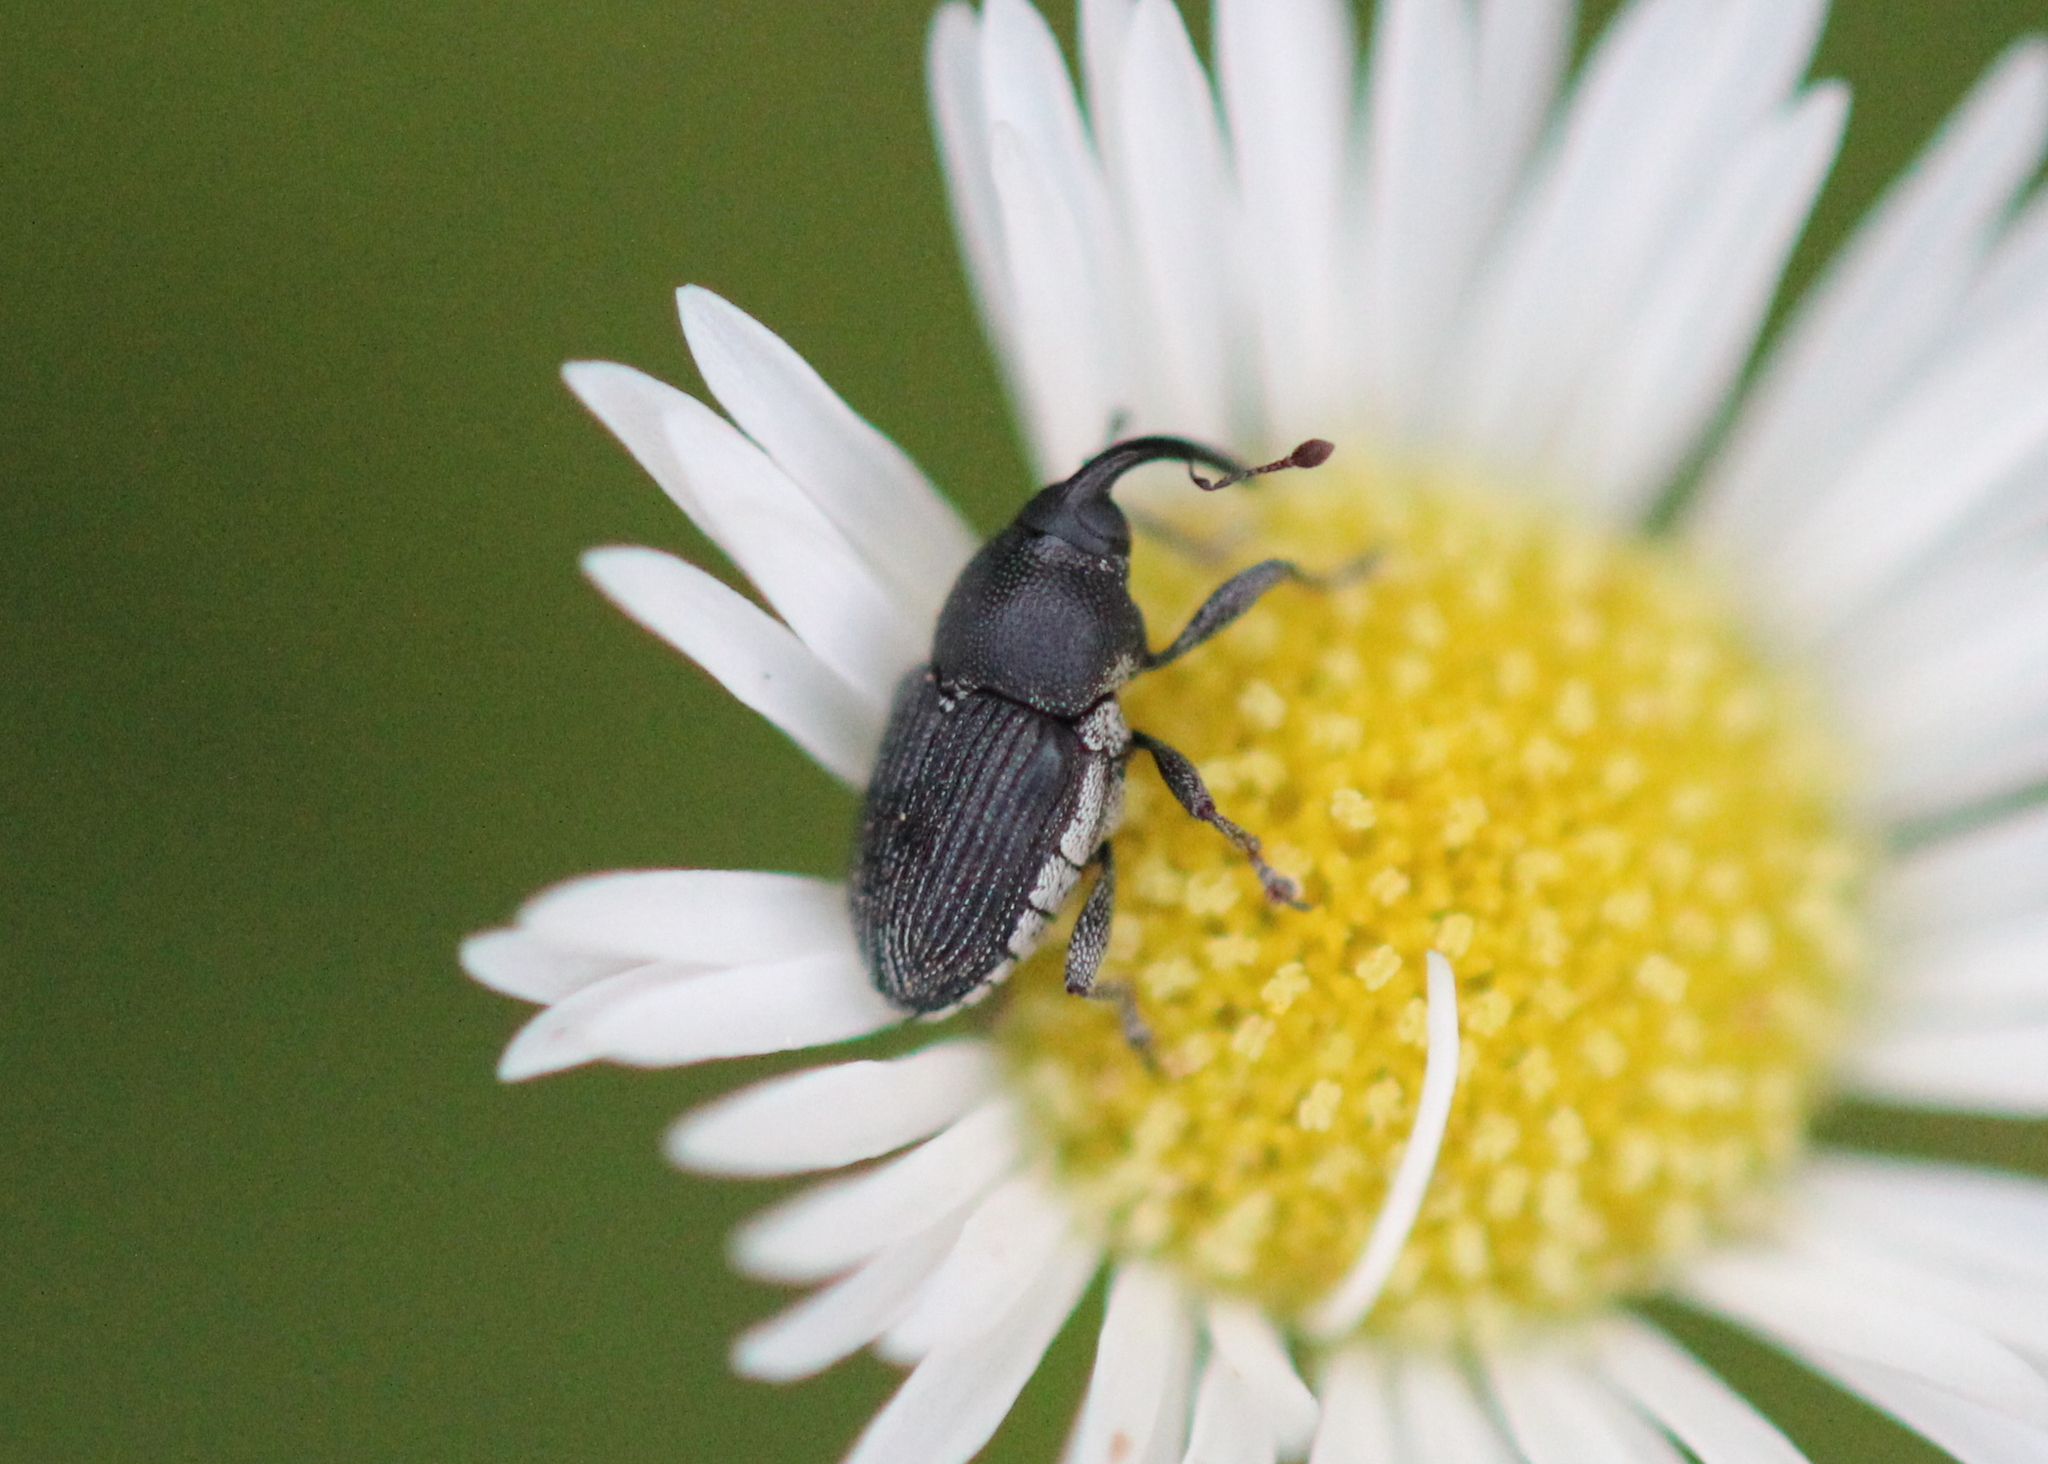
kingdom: Animalia
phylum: Arthropoda
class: Insecta
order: Coleoptera
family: Curculionidae
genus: Odontocorynus
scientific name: Odontocorynus salebrosus
